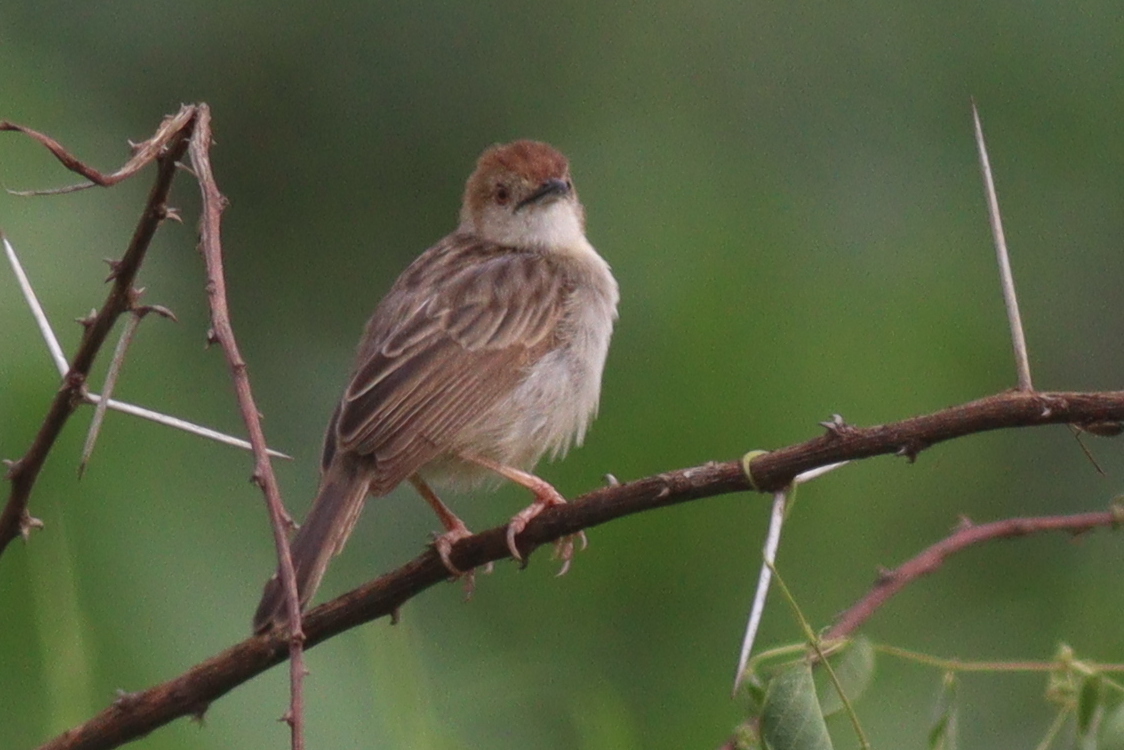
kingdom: Animalia
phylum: Chordata
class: Aves
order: Passeriformes
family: Cisticolidae
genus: Cisticola
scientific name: Cisticola chiniana
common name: Rattling cisticola
